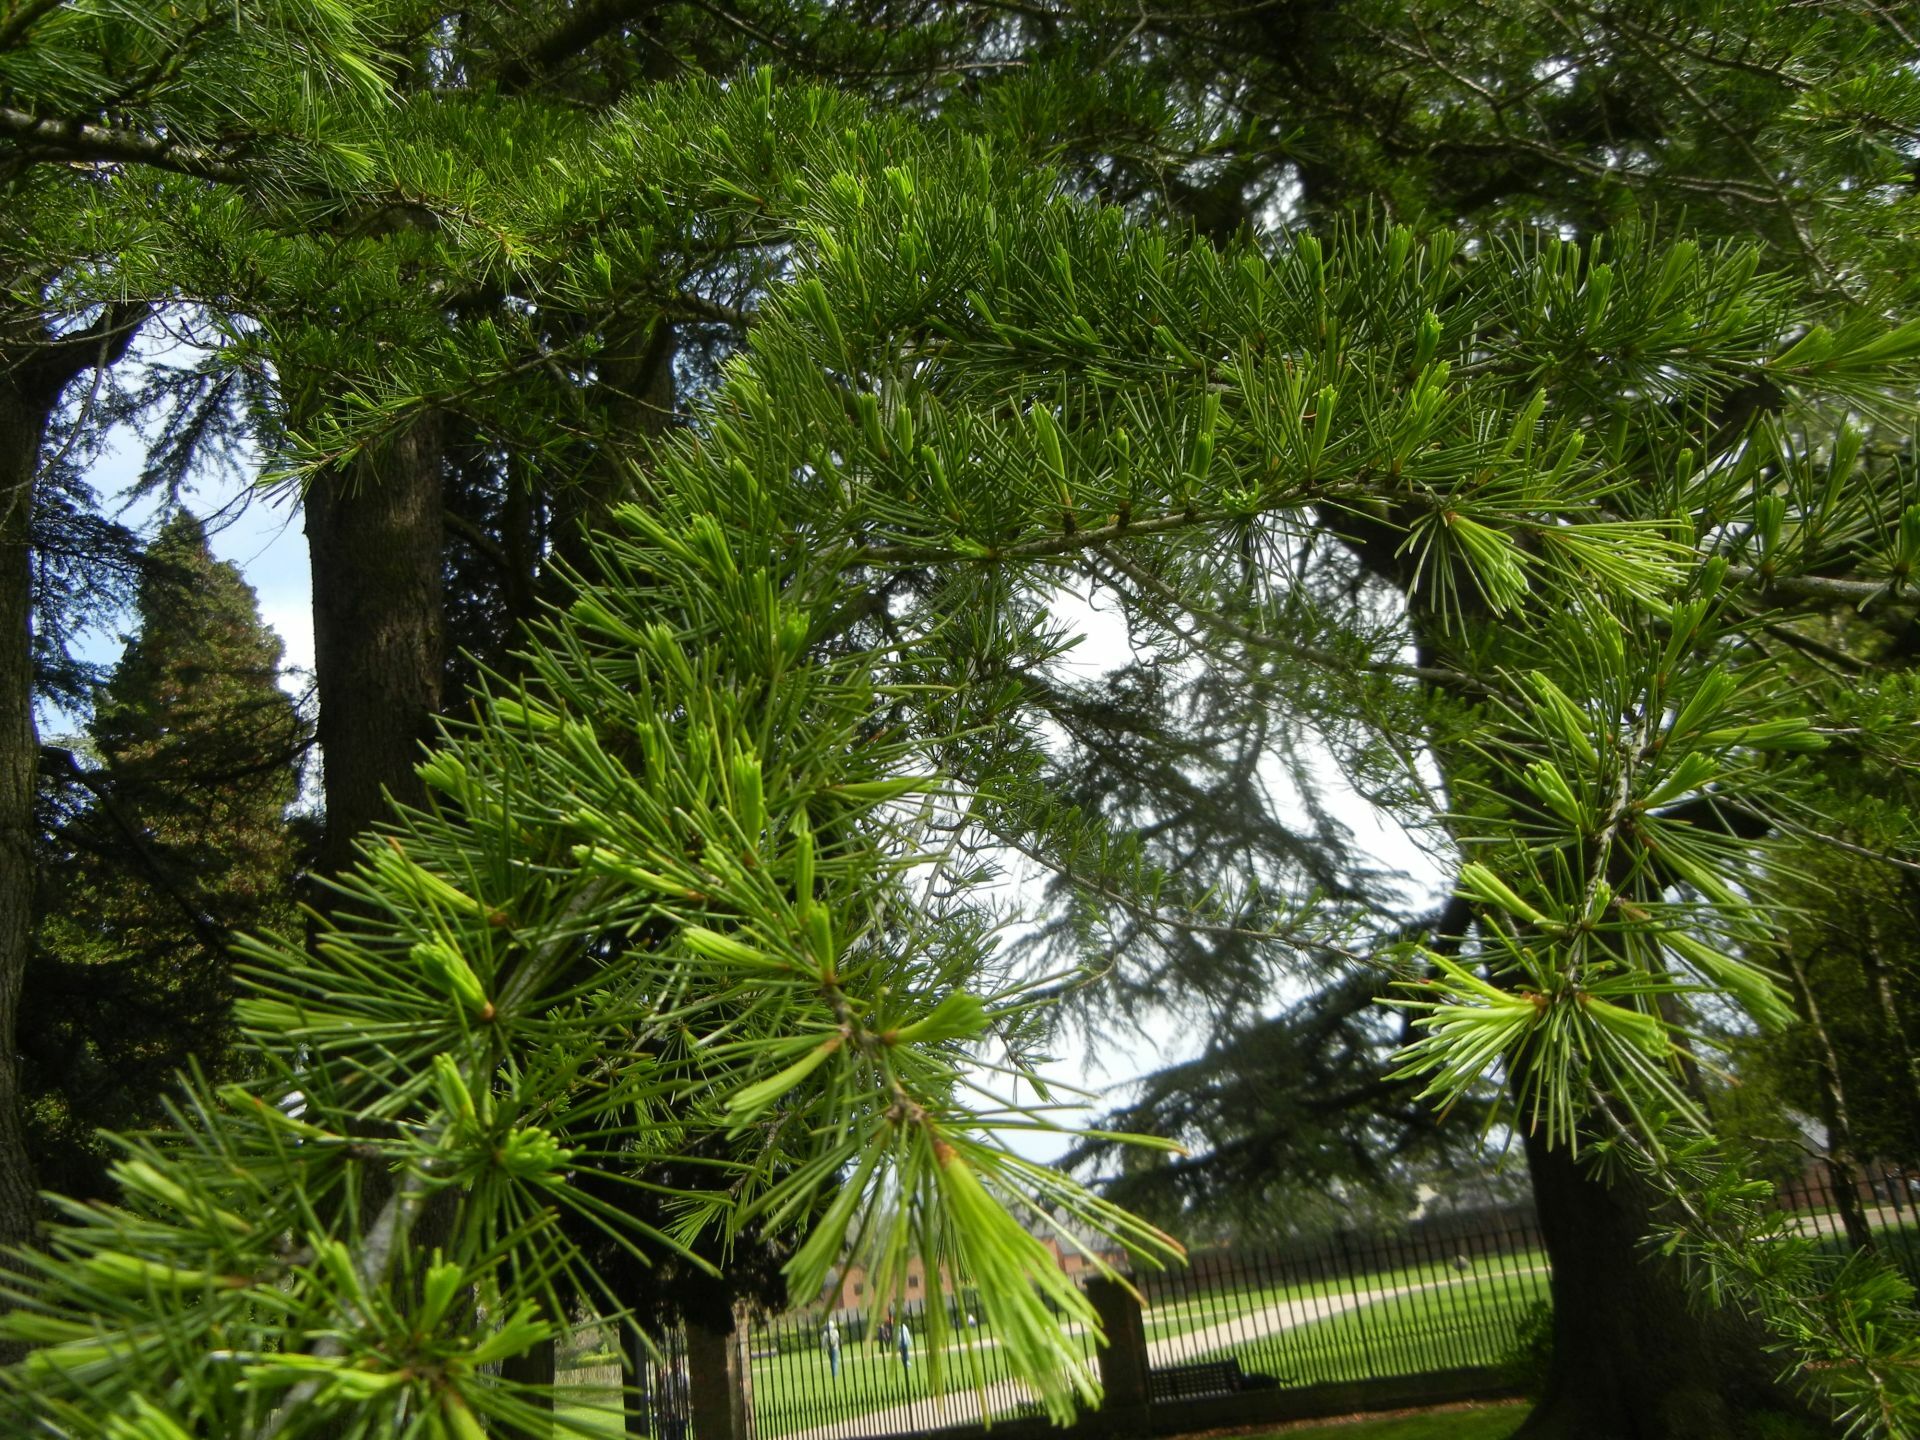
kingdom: Plantae
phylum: Tracheophyta
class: Pinopsida
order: Pinales
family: Pinaceae
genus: Larix
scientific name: Larix decidua
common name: European larch
